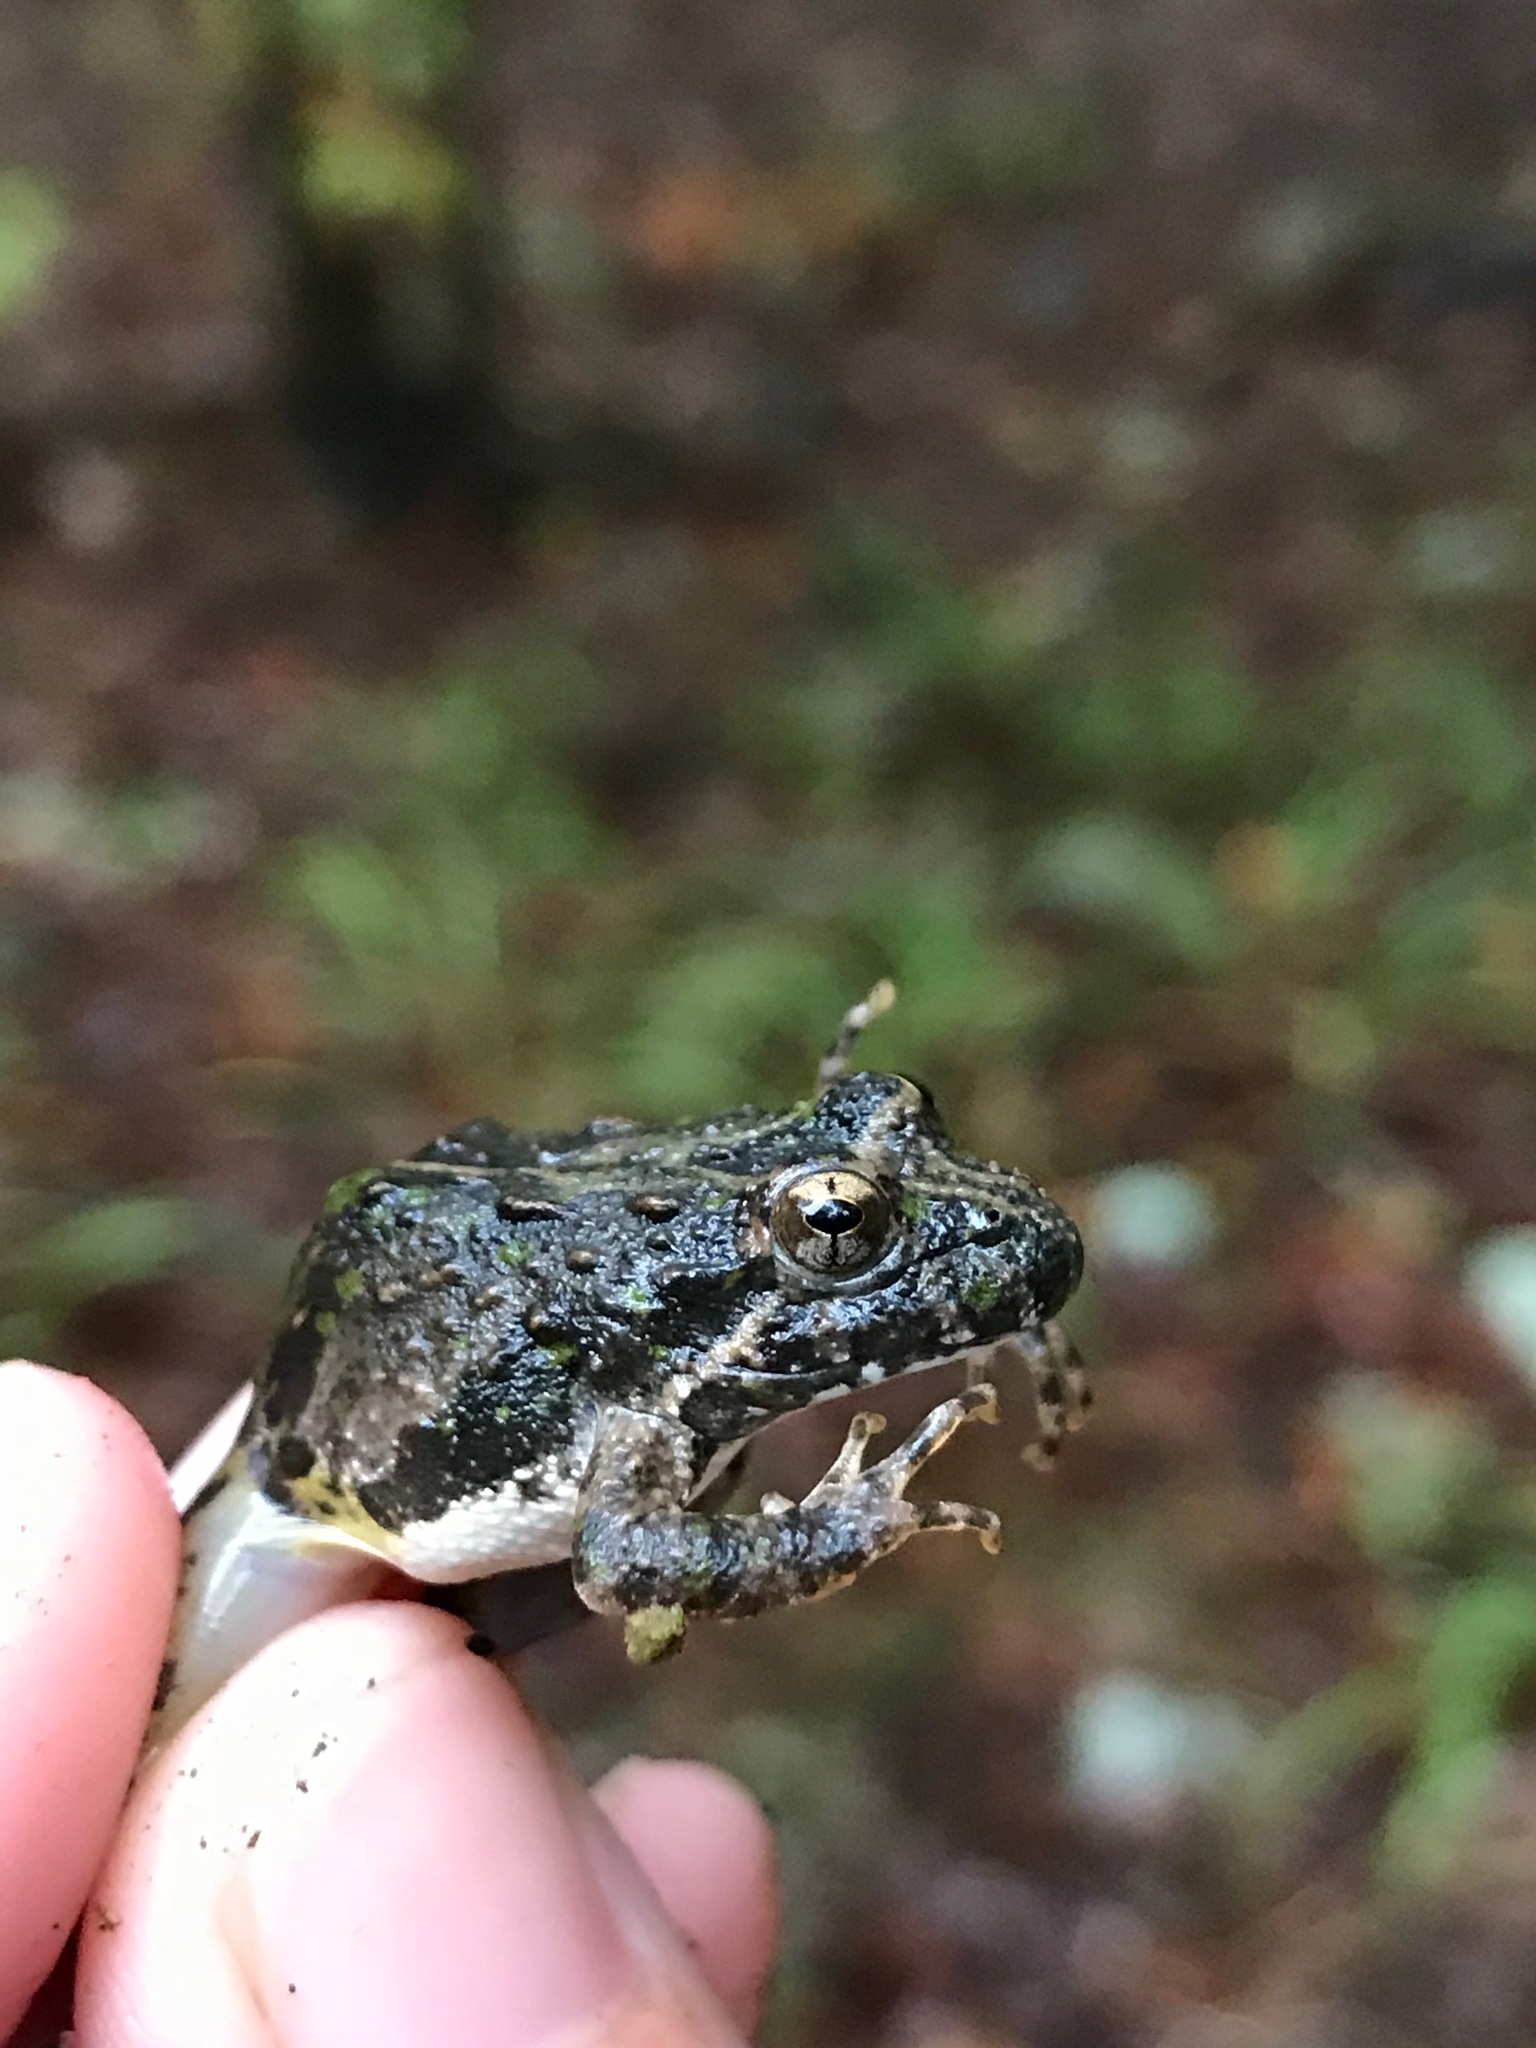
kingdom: Animalia
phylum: Chordata
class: Amphibia
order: Anura
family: Hylidae
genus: Acris
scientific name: Acris blanchardi
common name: Blanchard's cricket frog
